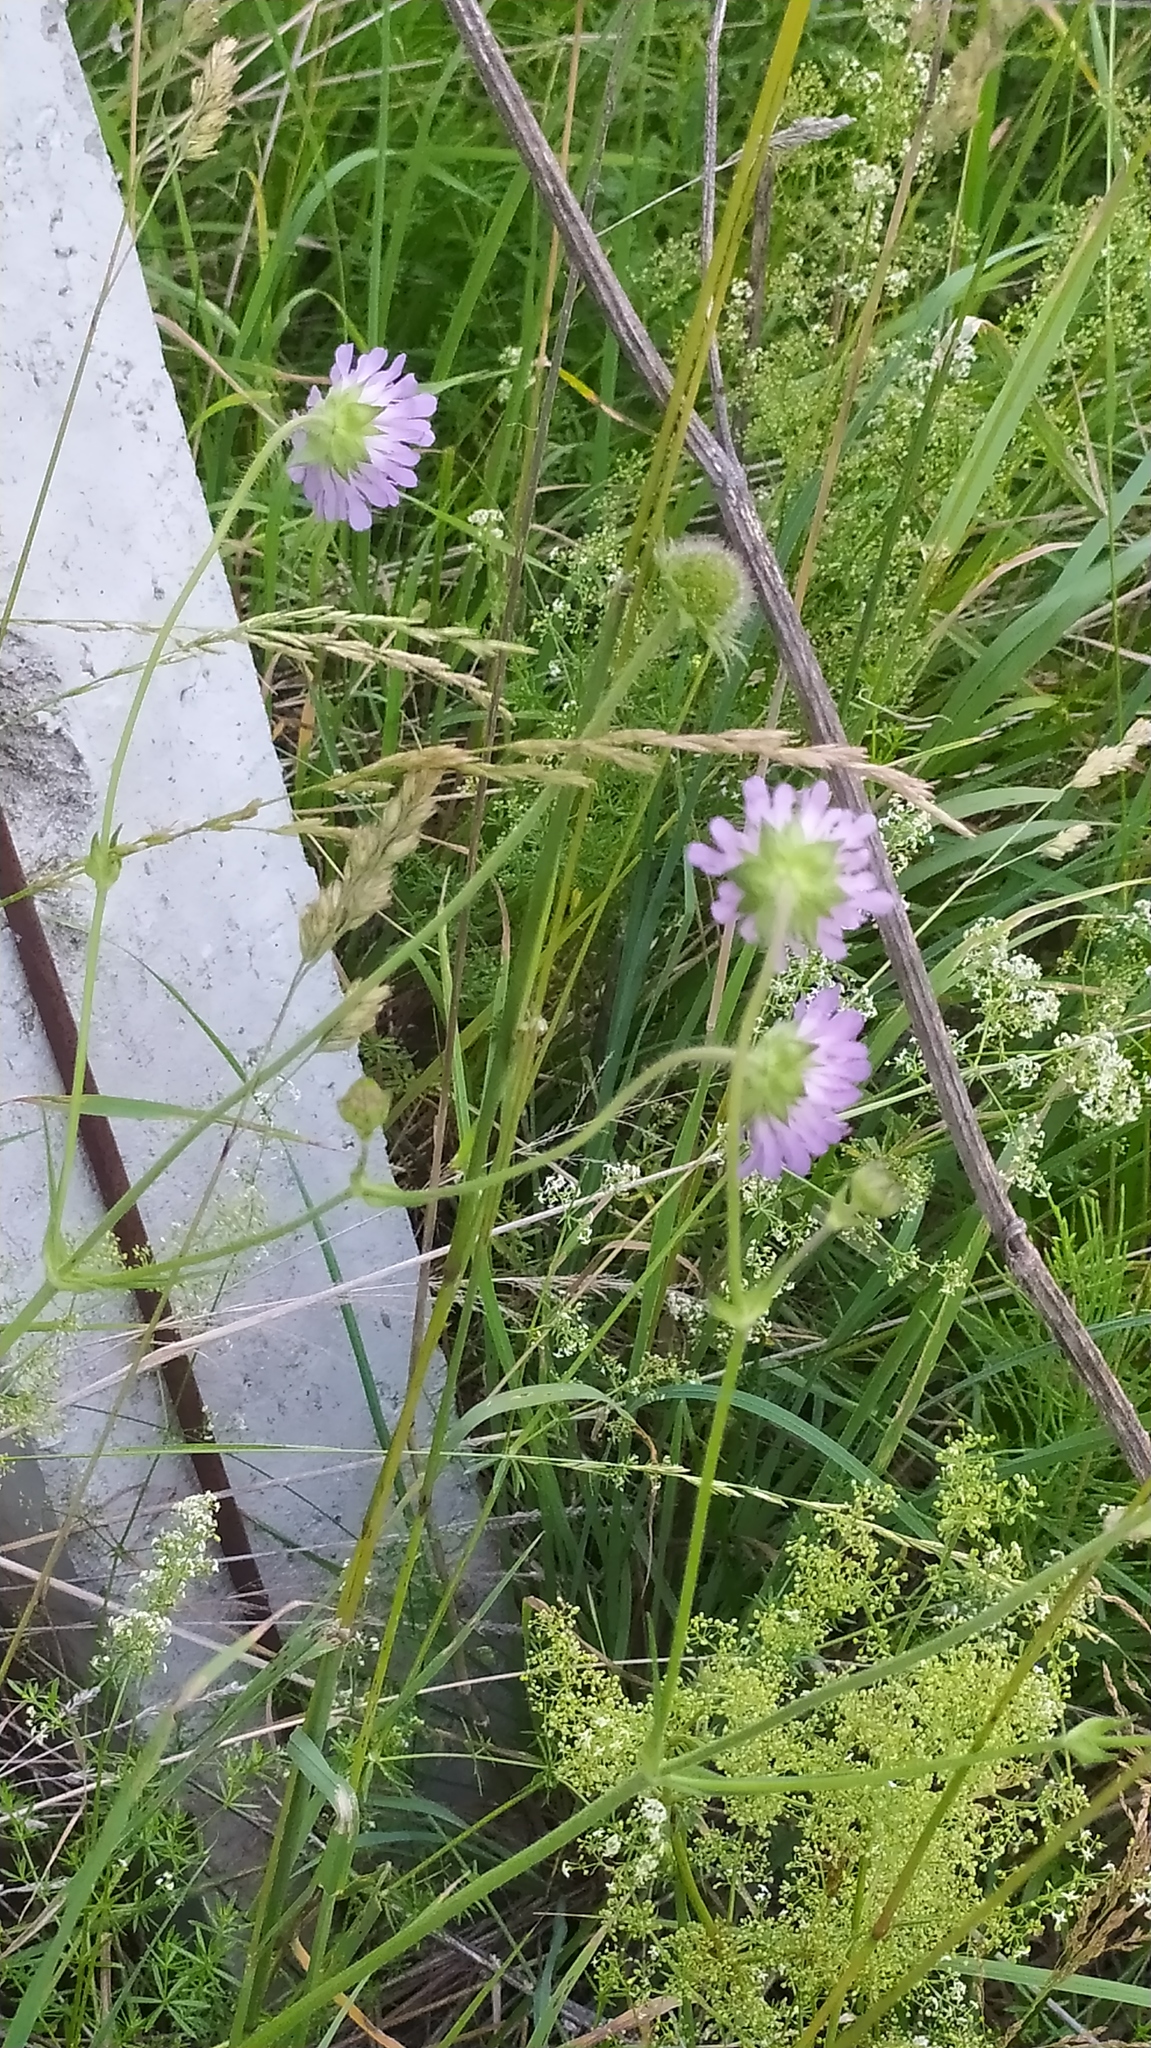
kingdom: Plantae
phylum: Tracheophyta
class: Magnoliopsida
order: Dipsacales
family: Caprifoliaceae
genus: Knautia
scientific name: Knautia arvensis
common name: Field scabiosa
